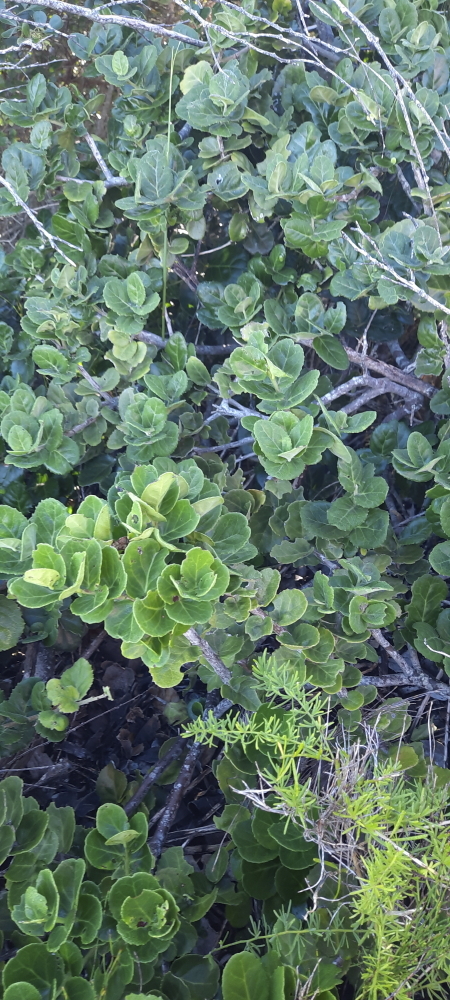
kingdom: Plantae
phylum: Tracheophyta
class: Magnoliopsida
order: Celastrales
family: Celastraceae
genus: Mystroxylon
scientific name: Mystroxylon aethiopicum
